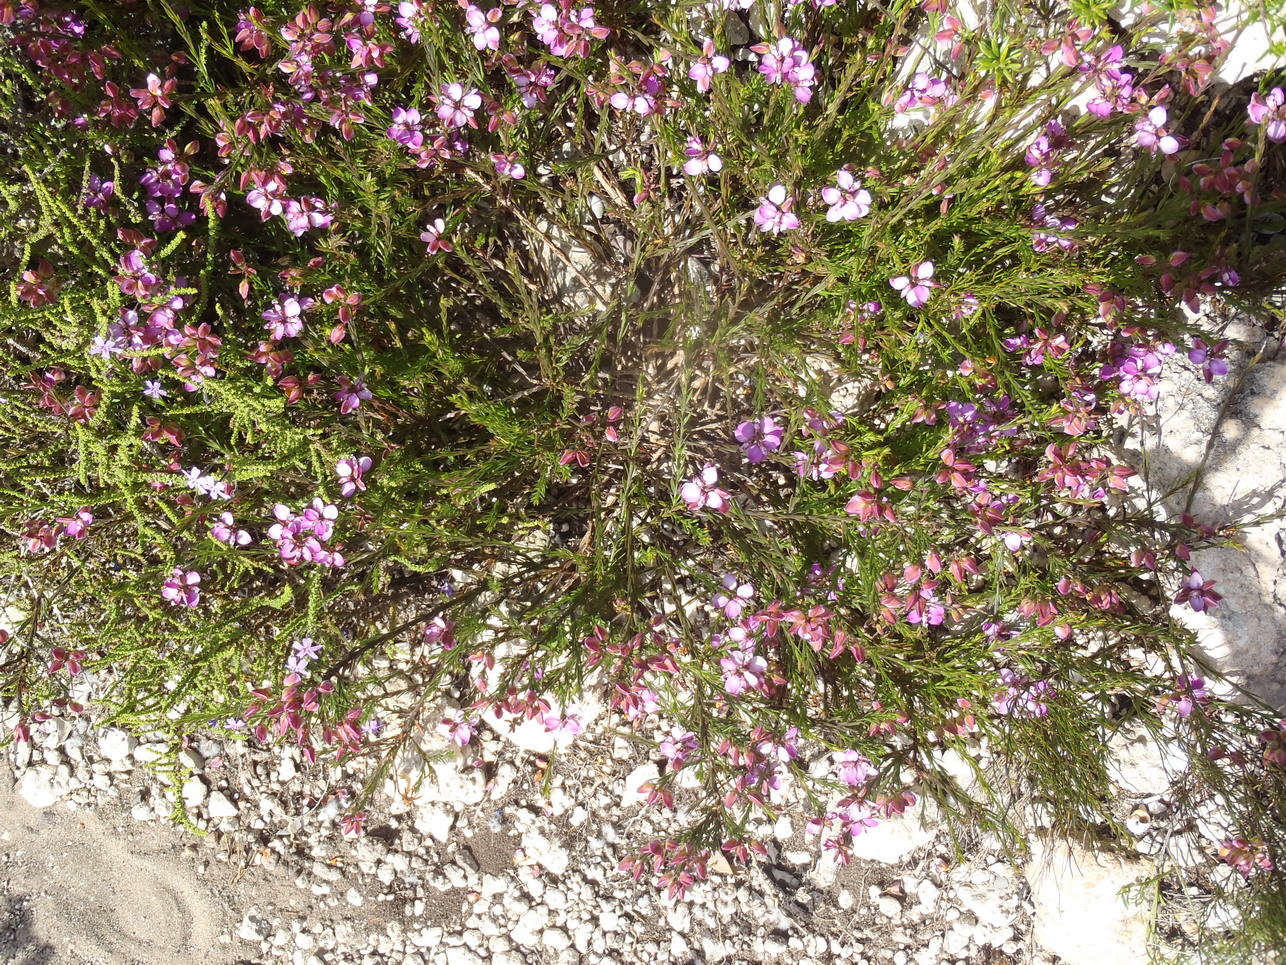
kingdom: Plantae
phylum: Tracheophyta
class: Magnoliopsida
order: Fabales
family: Polygalaceae
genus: Polygala
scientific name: Polygala ericifolia
